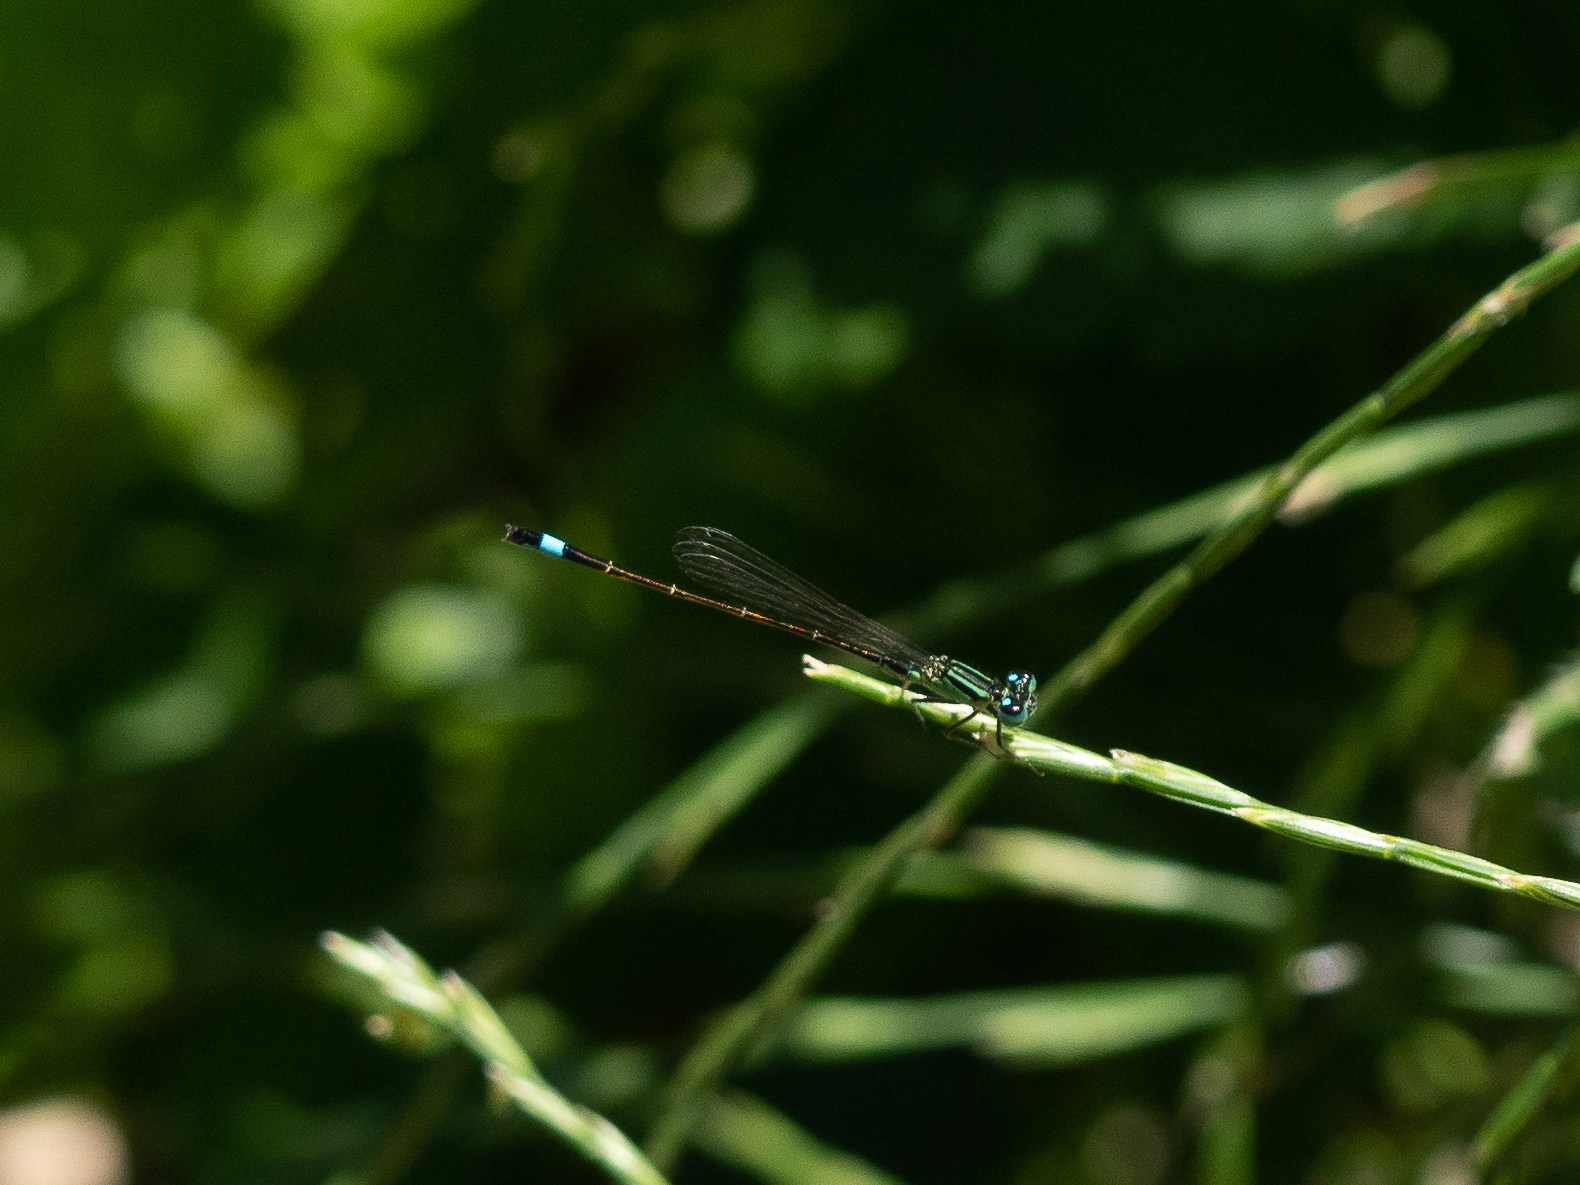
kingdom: Animalia
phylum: Arthropoda
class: Insecta
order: Odonata
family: Coenagrionidae
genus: Ischnura
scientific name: Ischnura elegans
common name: Blue-tailed damselfly
